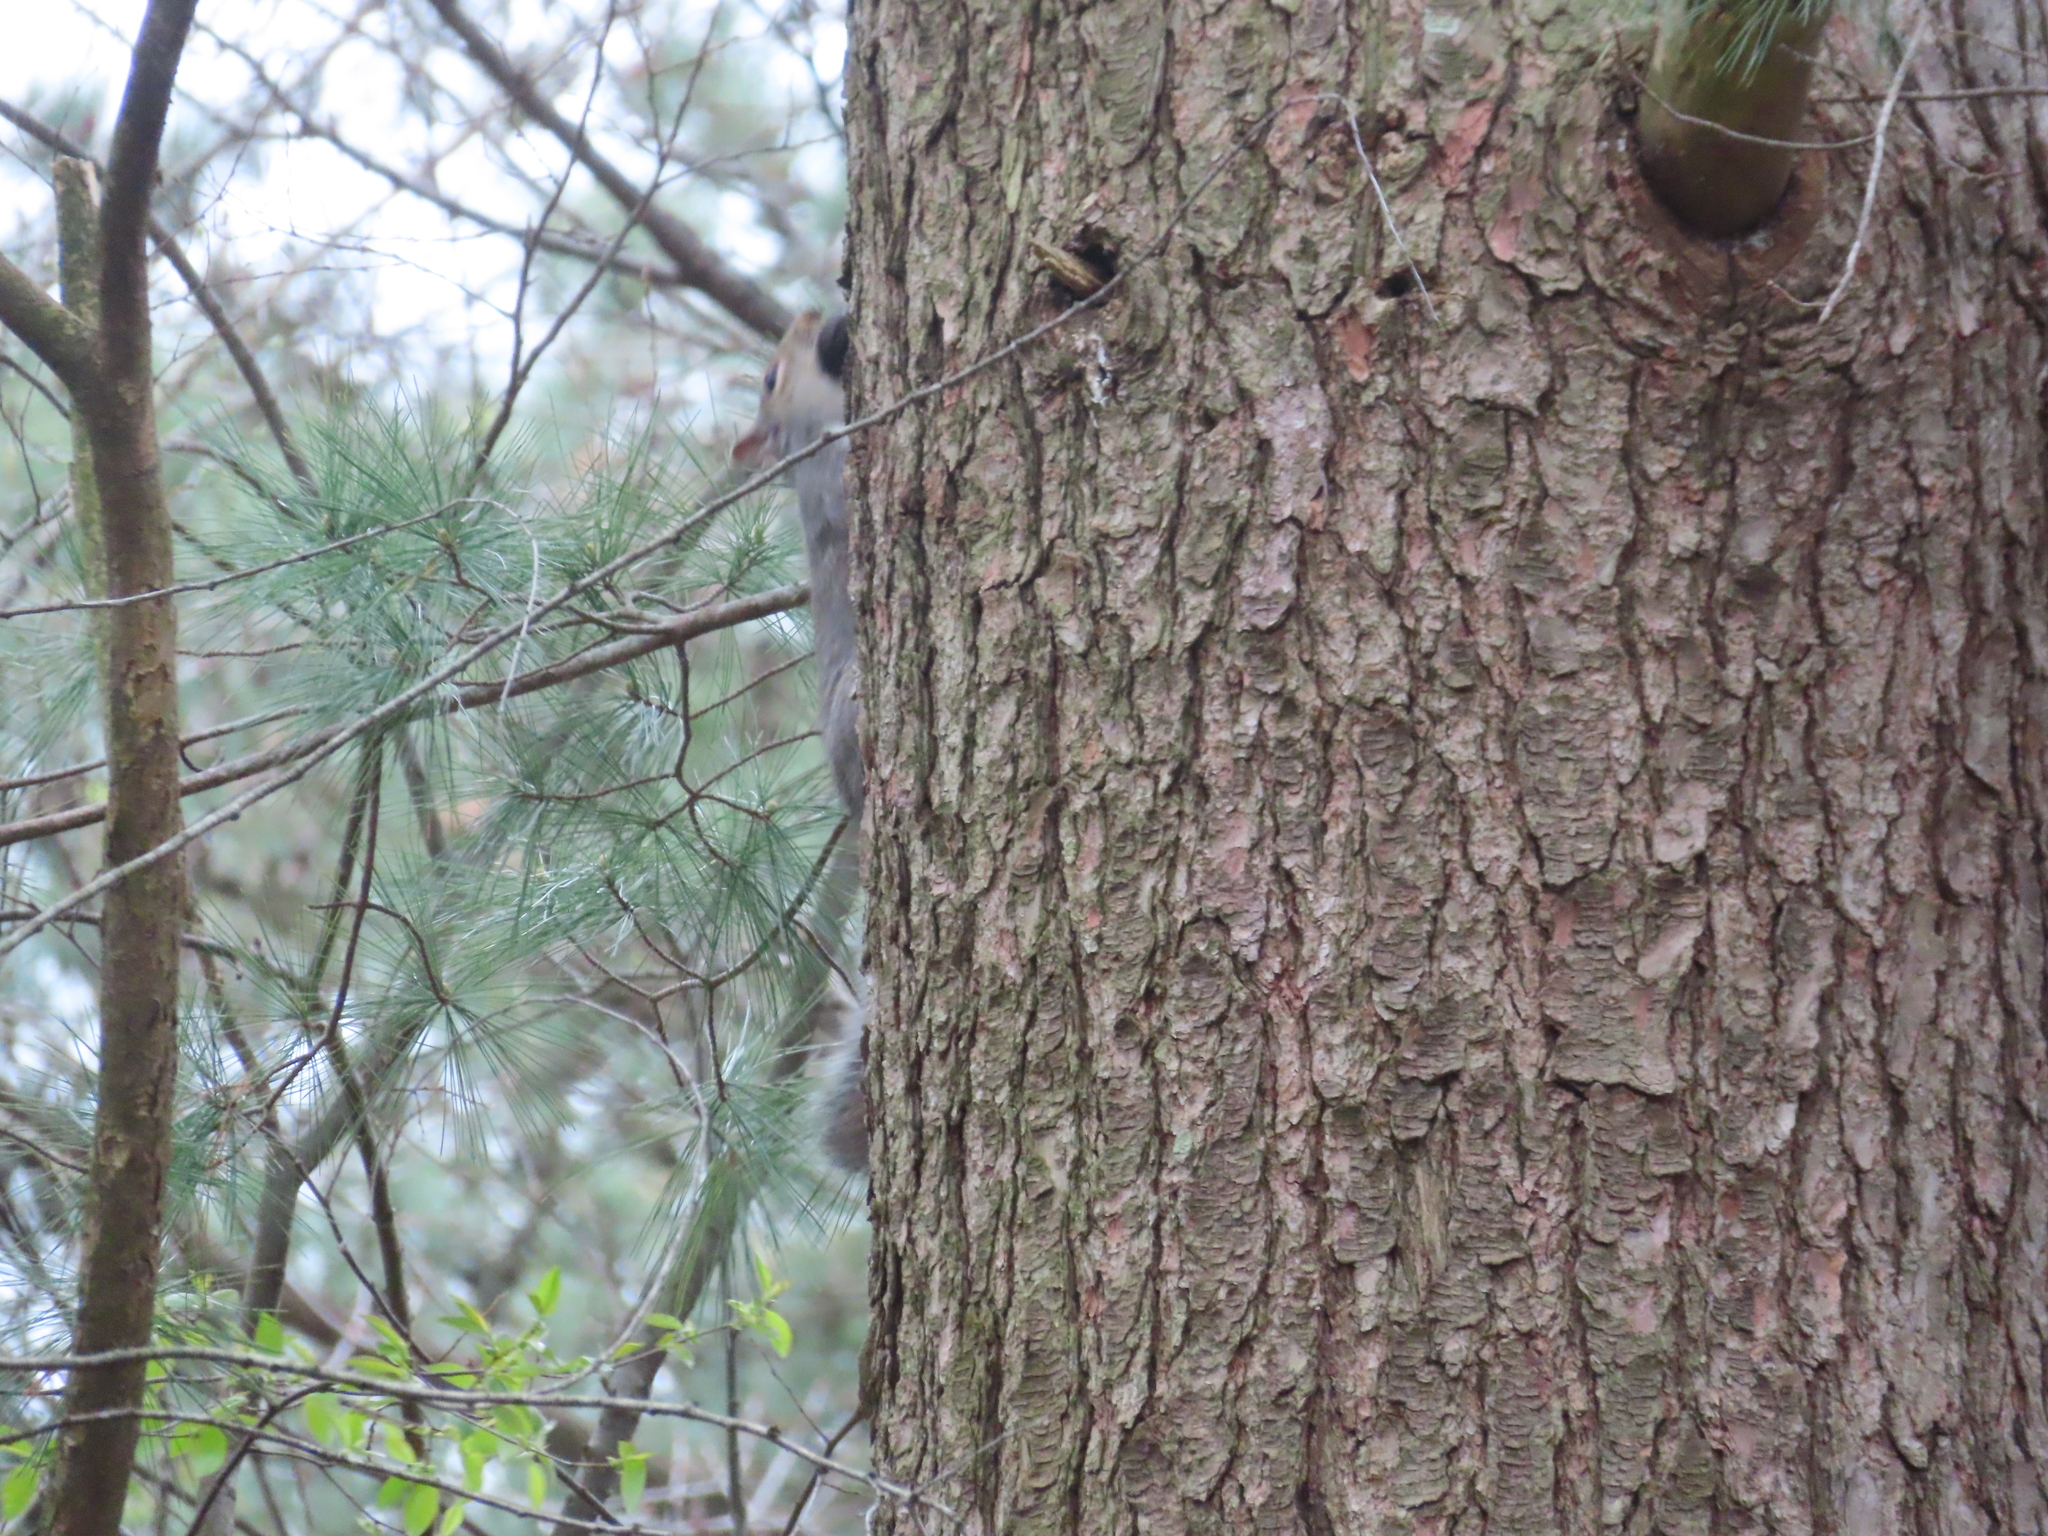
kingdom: Animalia
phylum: Chordata
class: Mammalia
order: Rodentia
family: Sciuridae
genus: Sciurus
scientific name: Sciurus carolinensis
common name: Eastern gray squirrel
